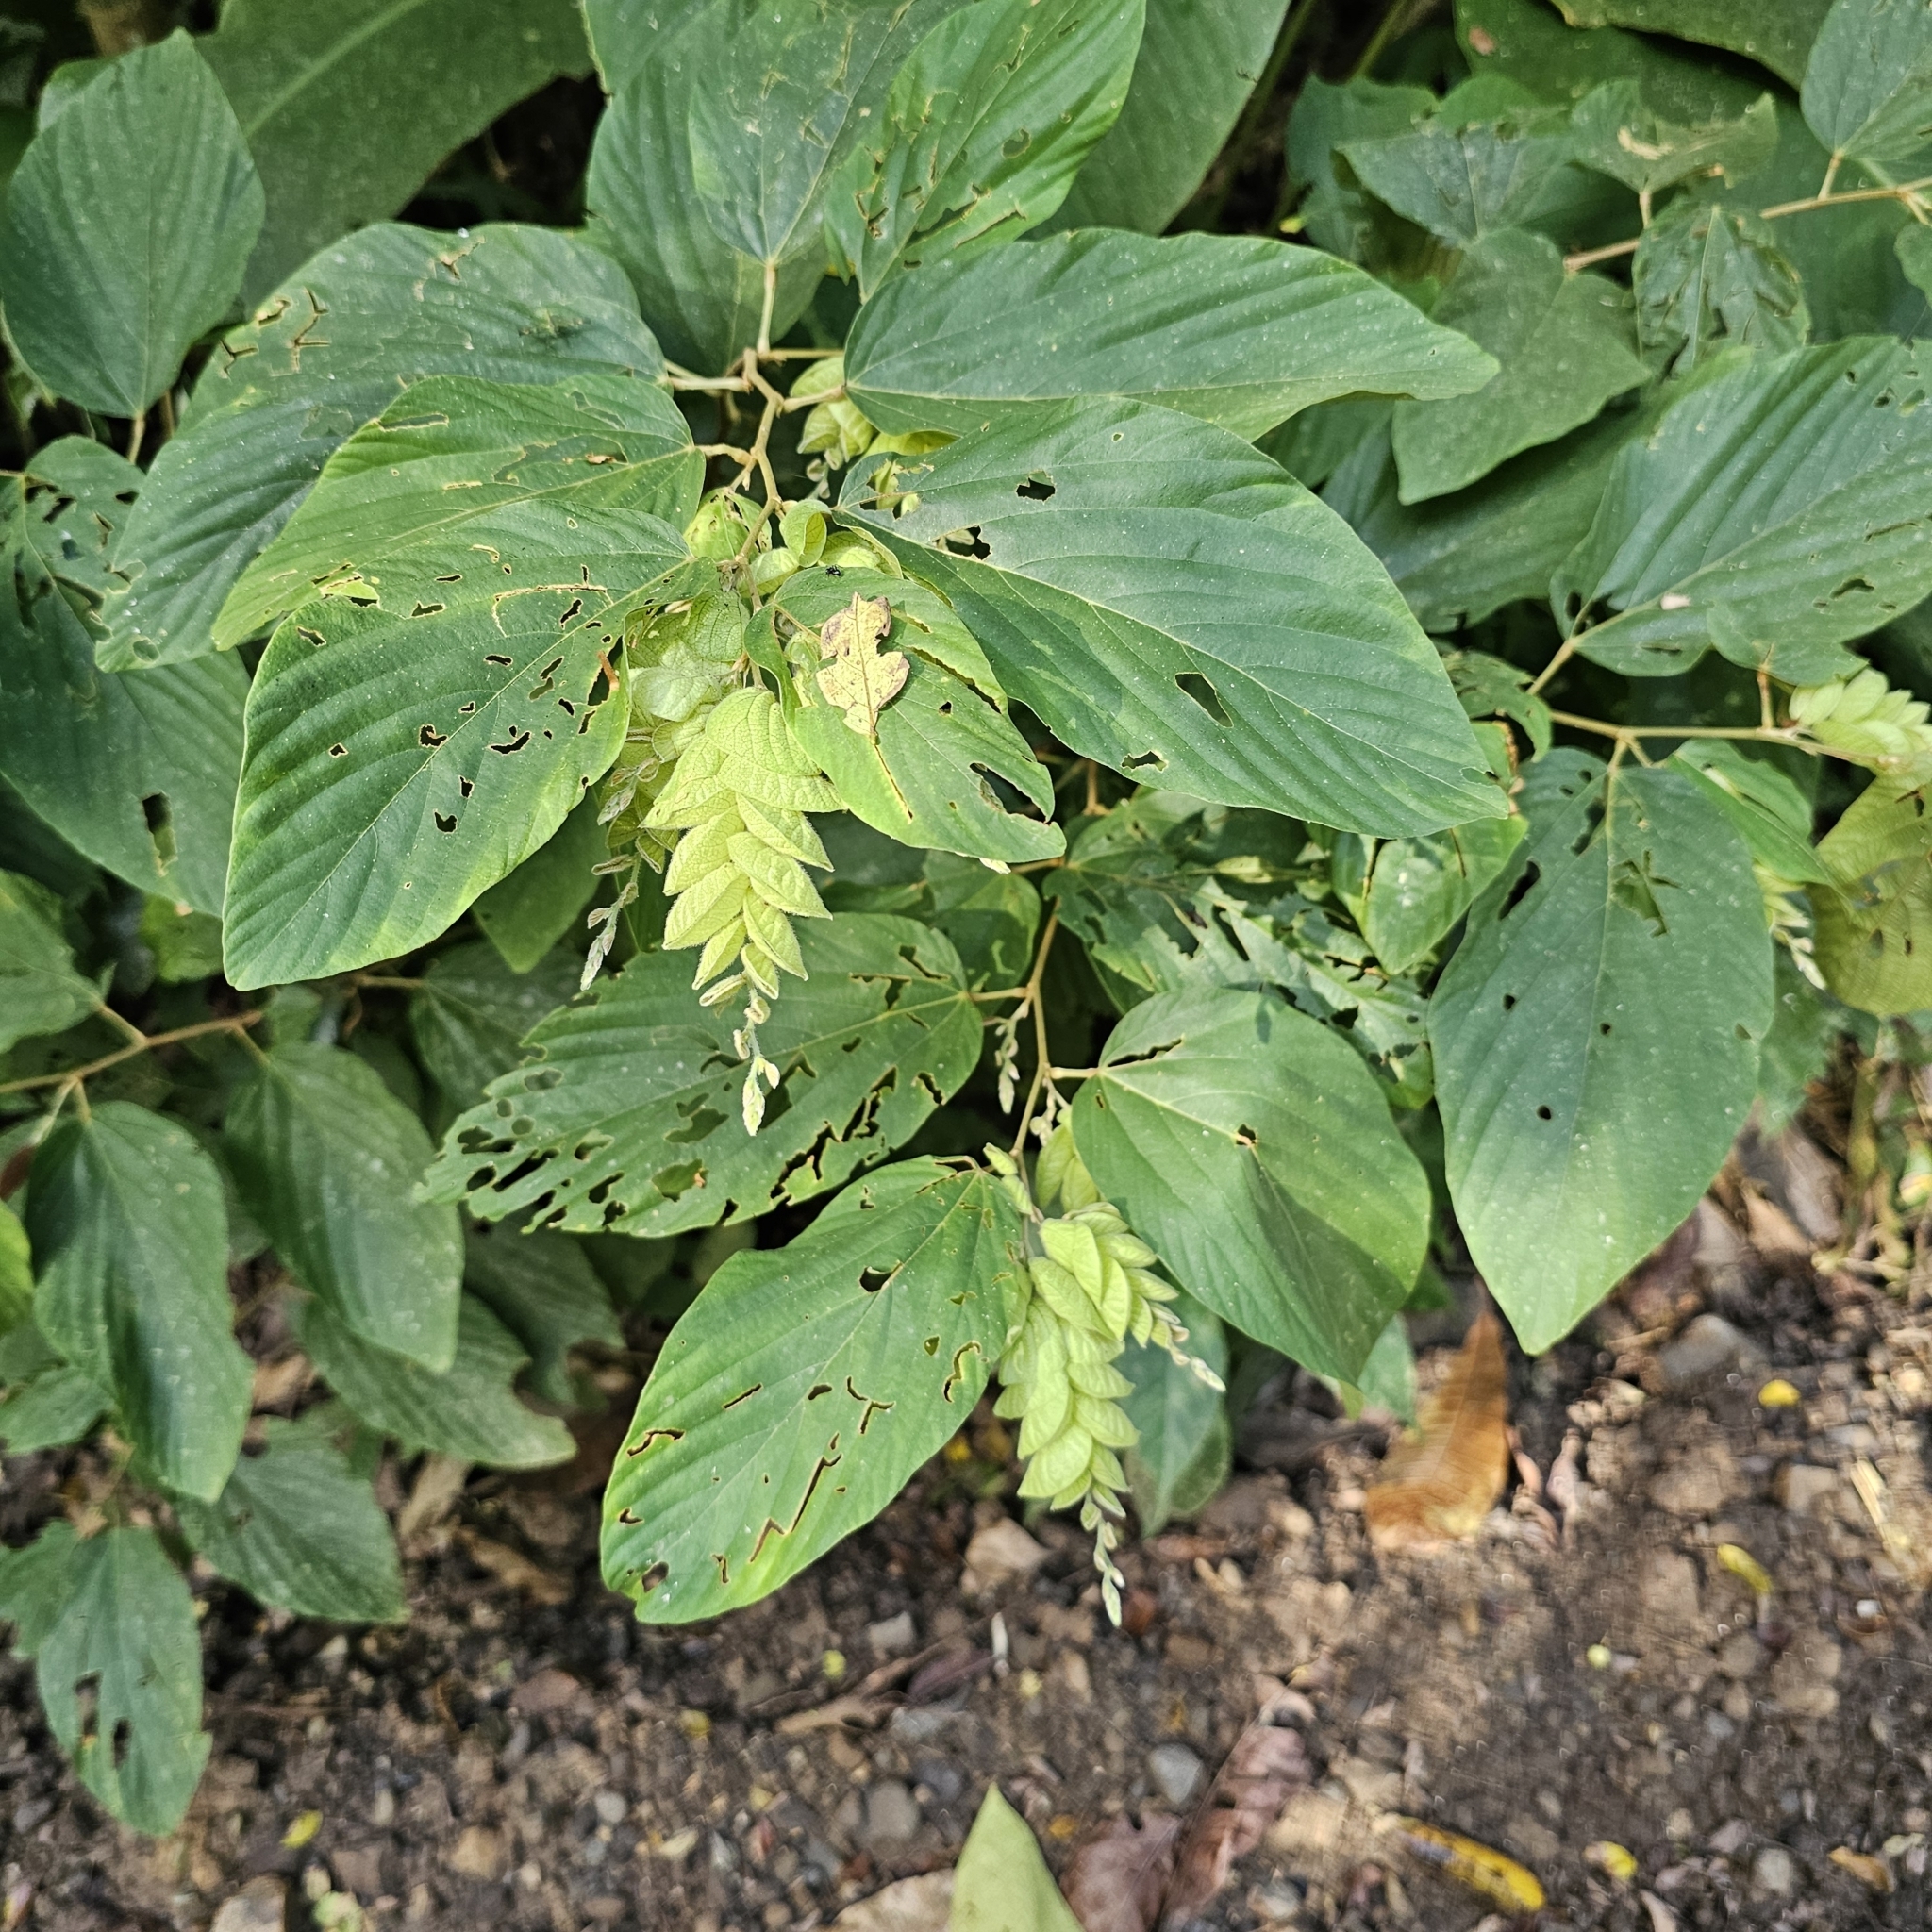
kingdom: Plantae
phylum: Tracheophyta
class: Magnoliopsida
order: Fabales
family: Fabaceae
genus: Flemingia
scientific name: Flemingia strobilifera
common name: Wild hops
